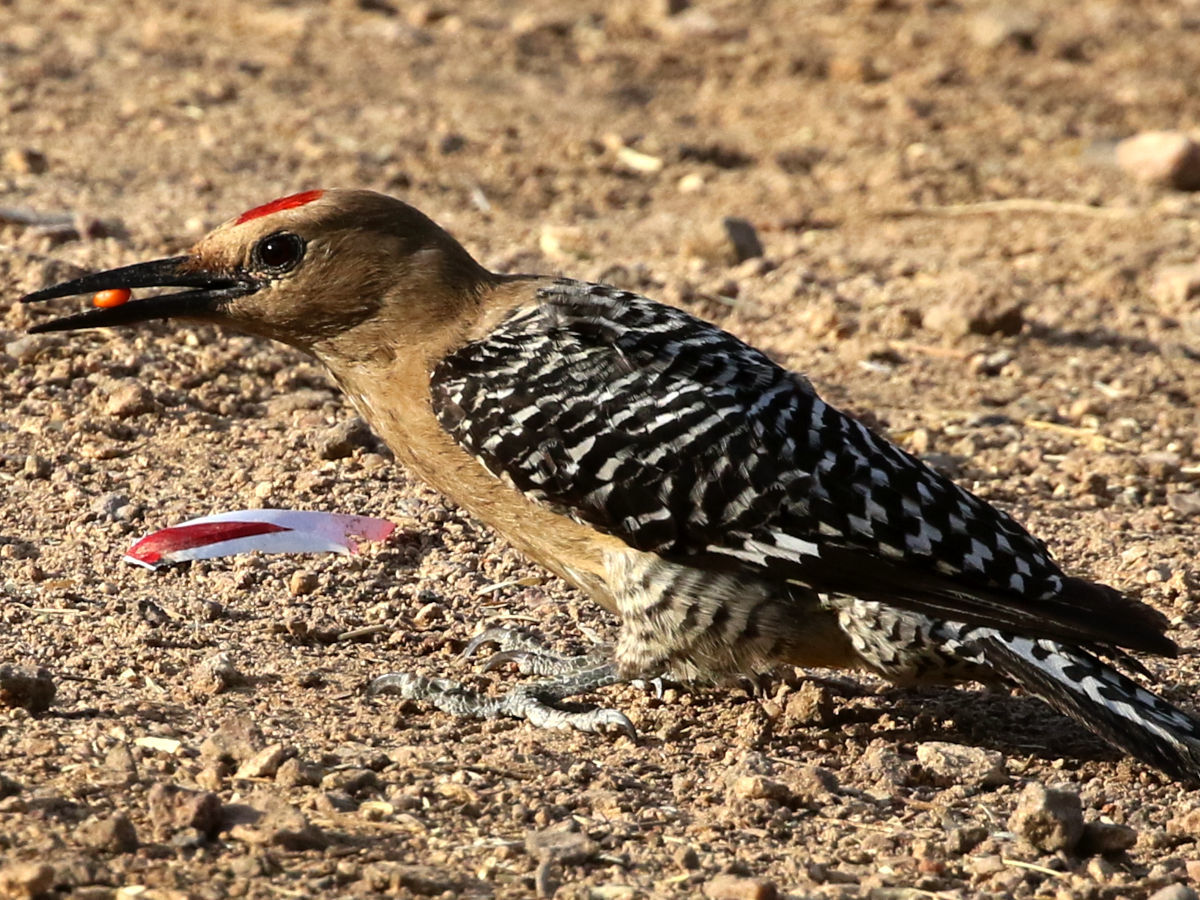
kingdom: Animalia
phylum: Chordata
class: Aves
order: Piciformes
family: Picidae
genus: Melanerpes
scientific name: Melanerpes uropygialis
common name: Gila woodpecker
